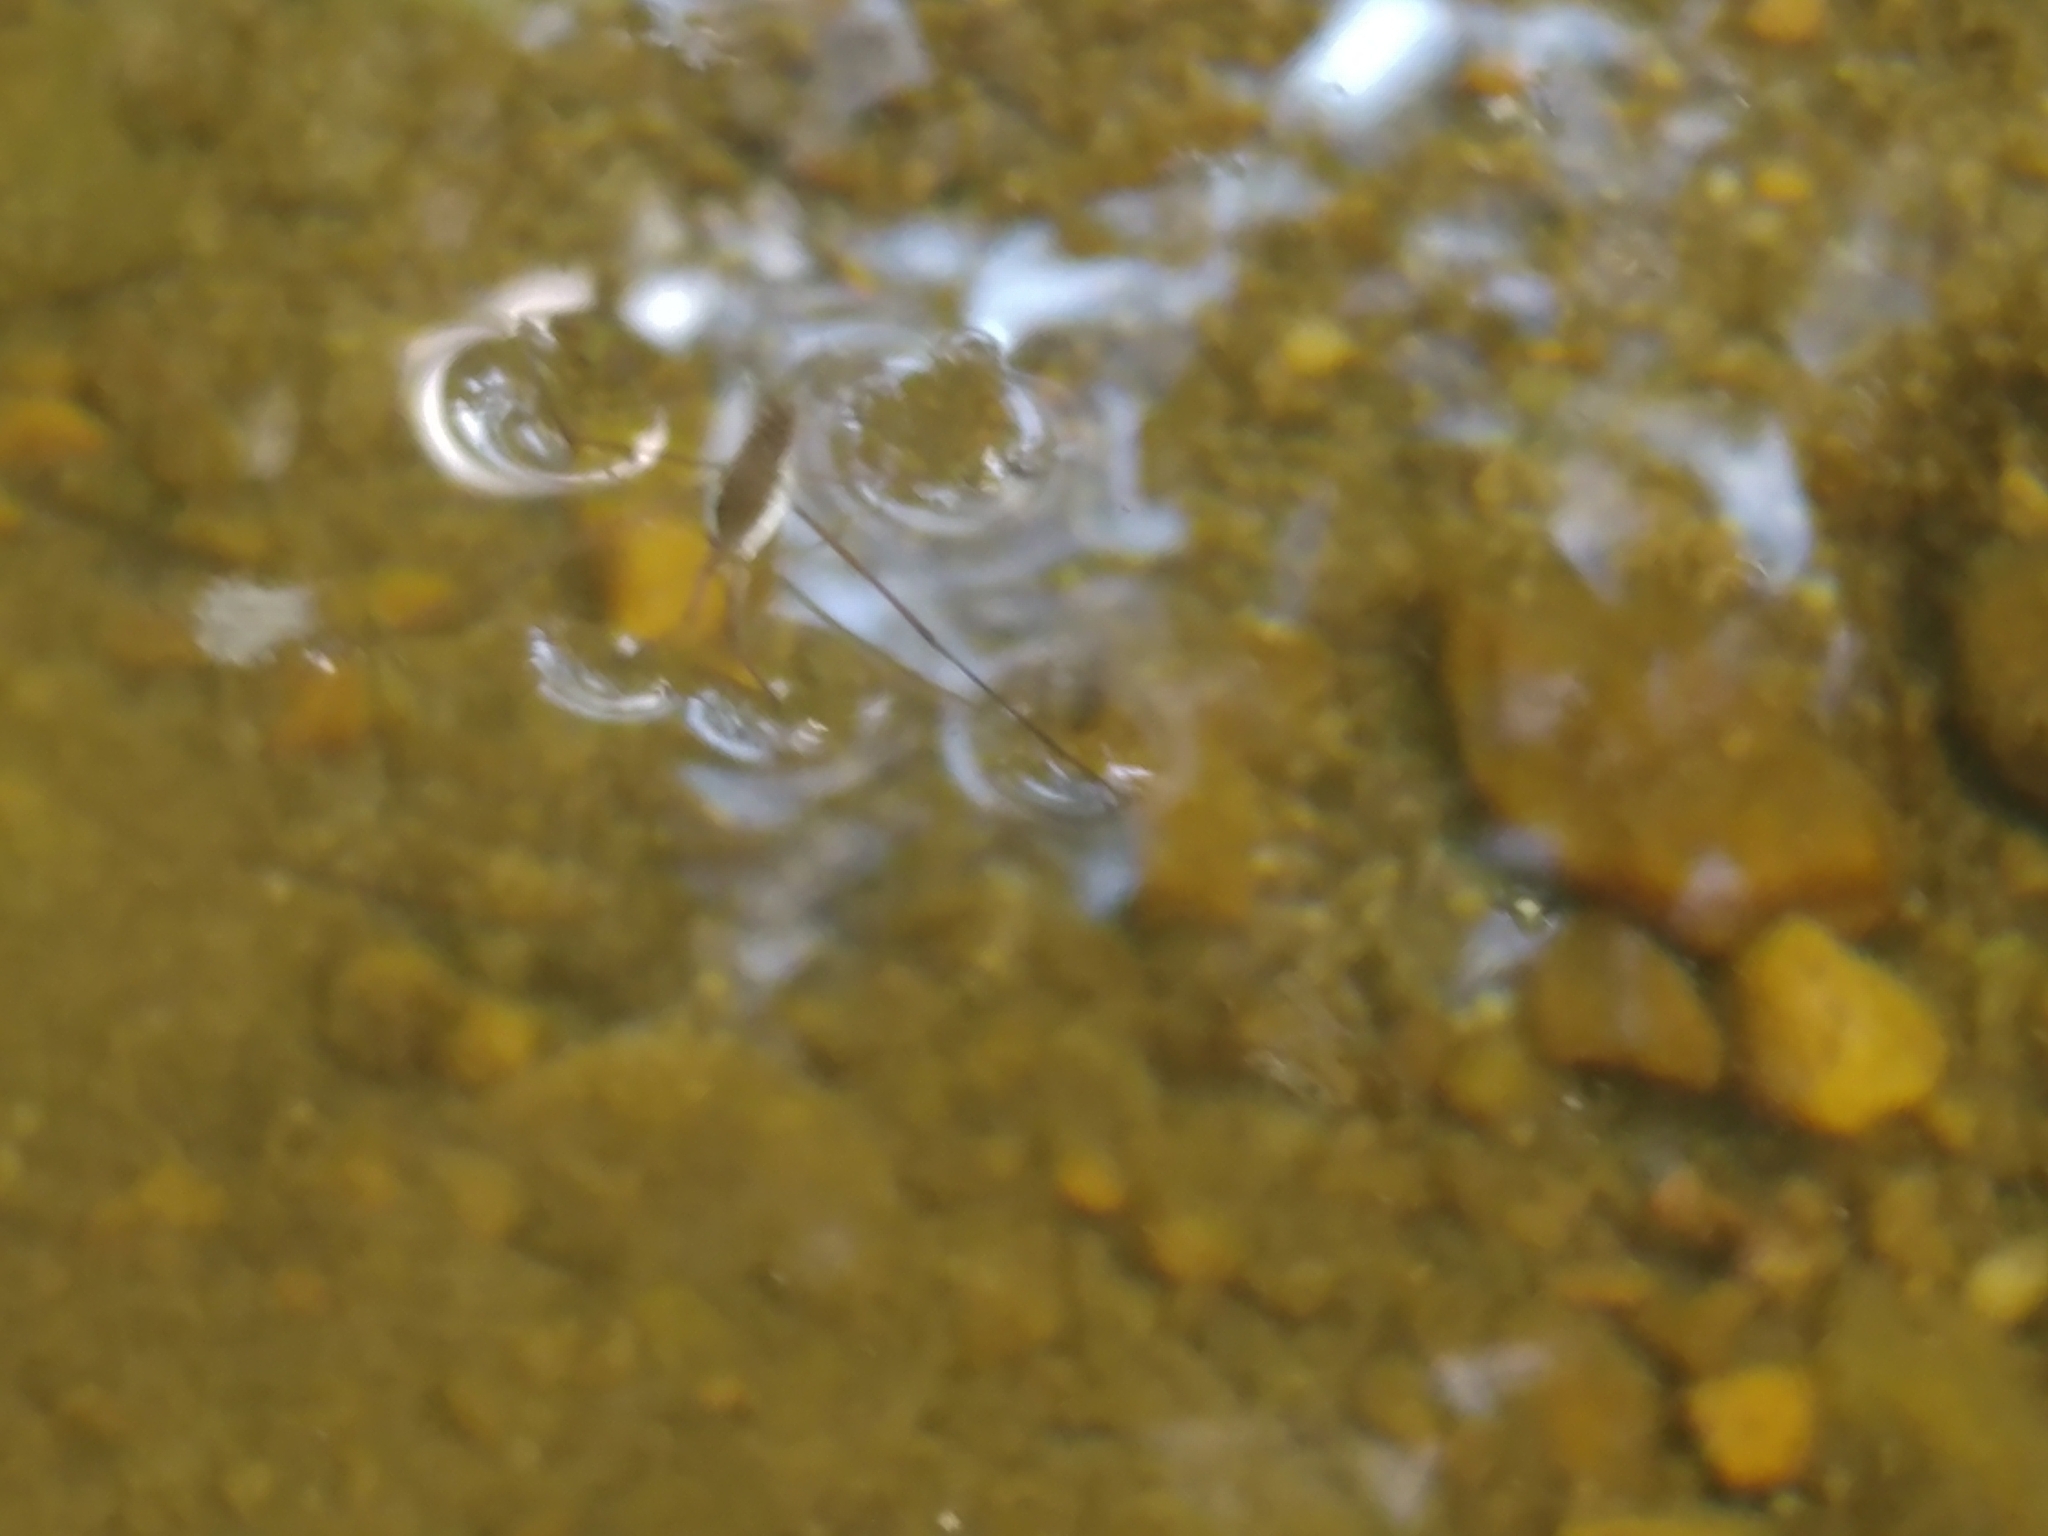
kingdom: Animalia
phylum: Arthropoda
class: Insecta
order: Hemiptera
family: Gerridae
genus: Aquarius
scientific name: Aquarius
